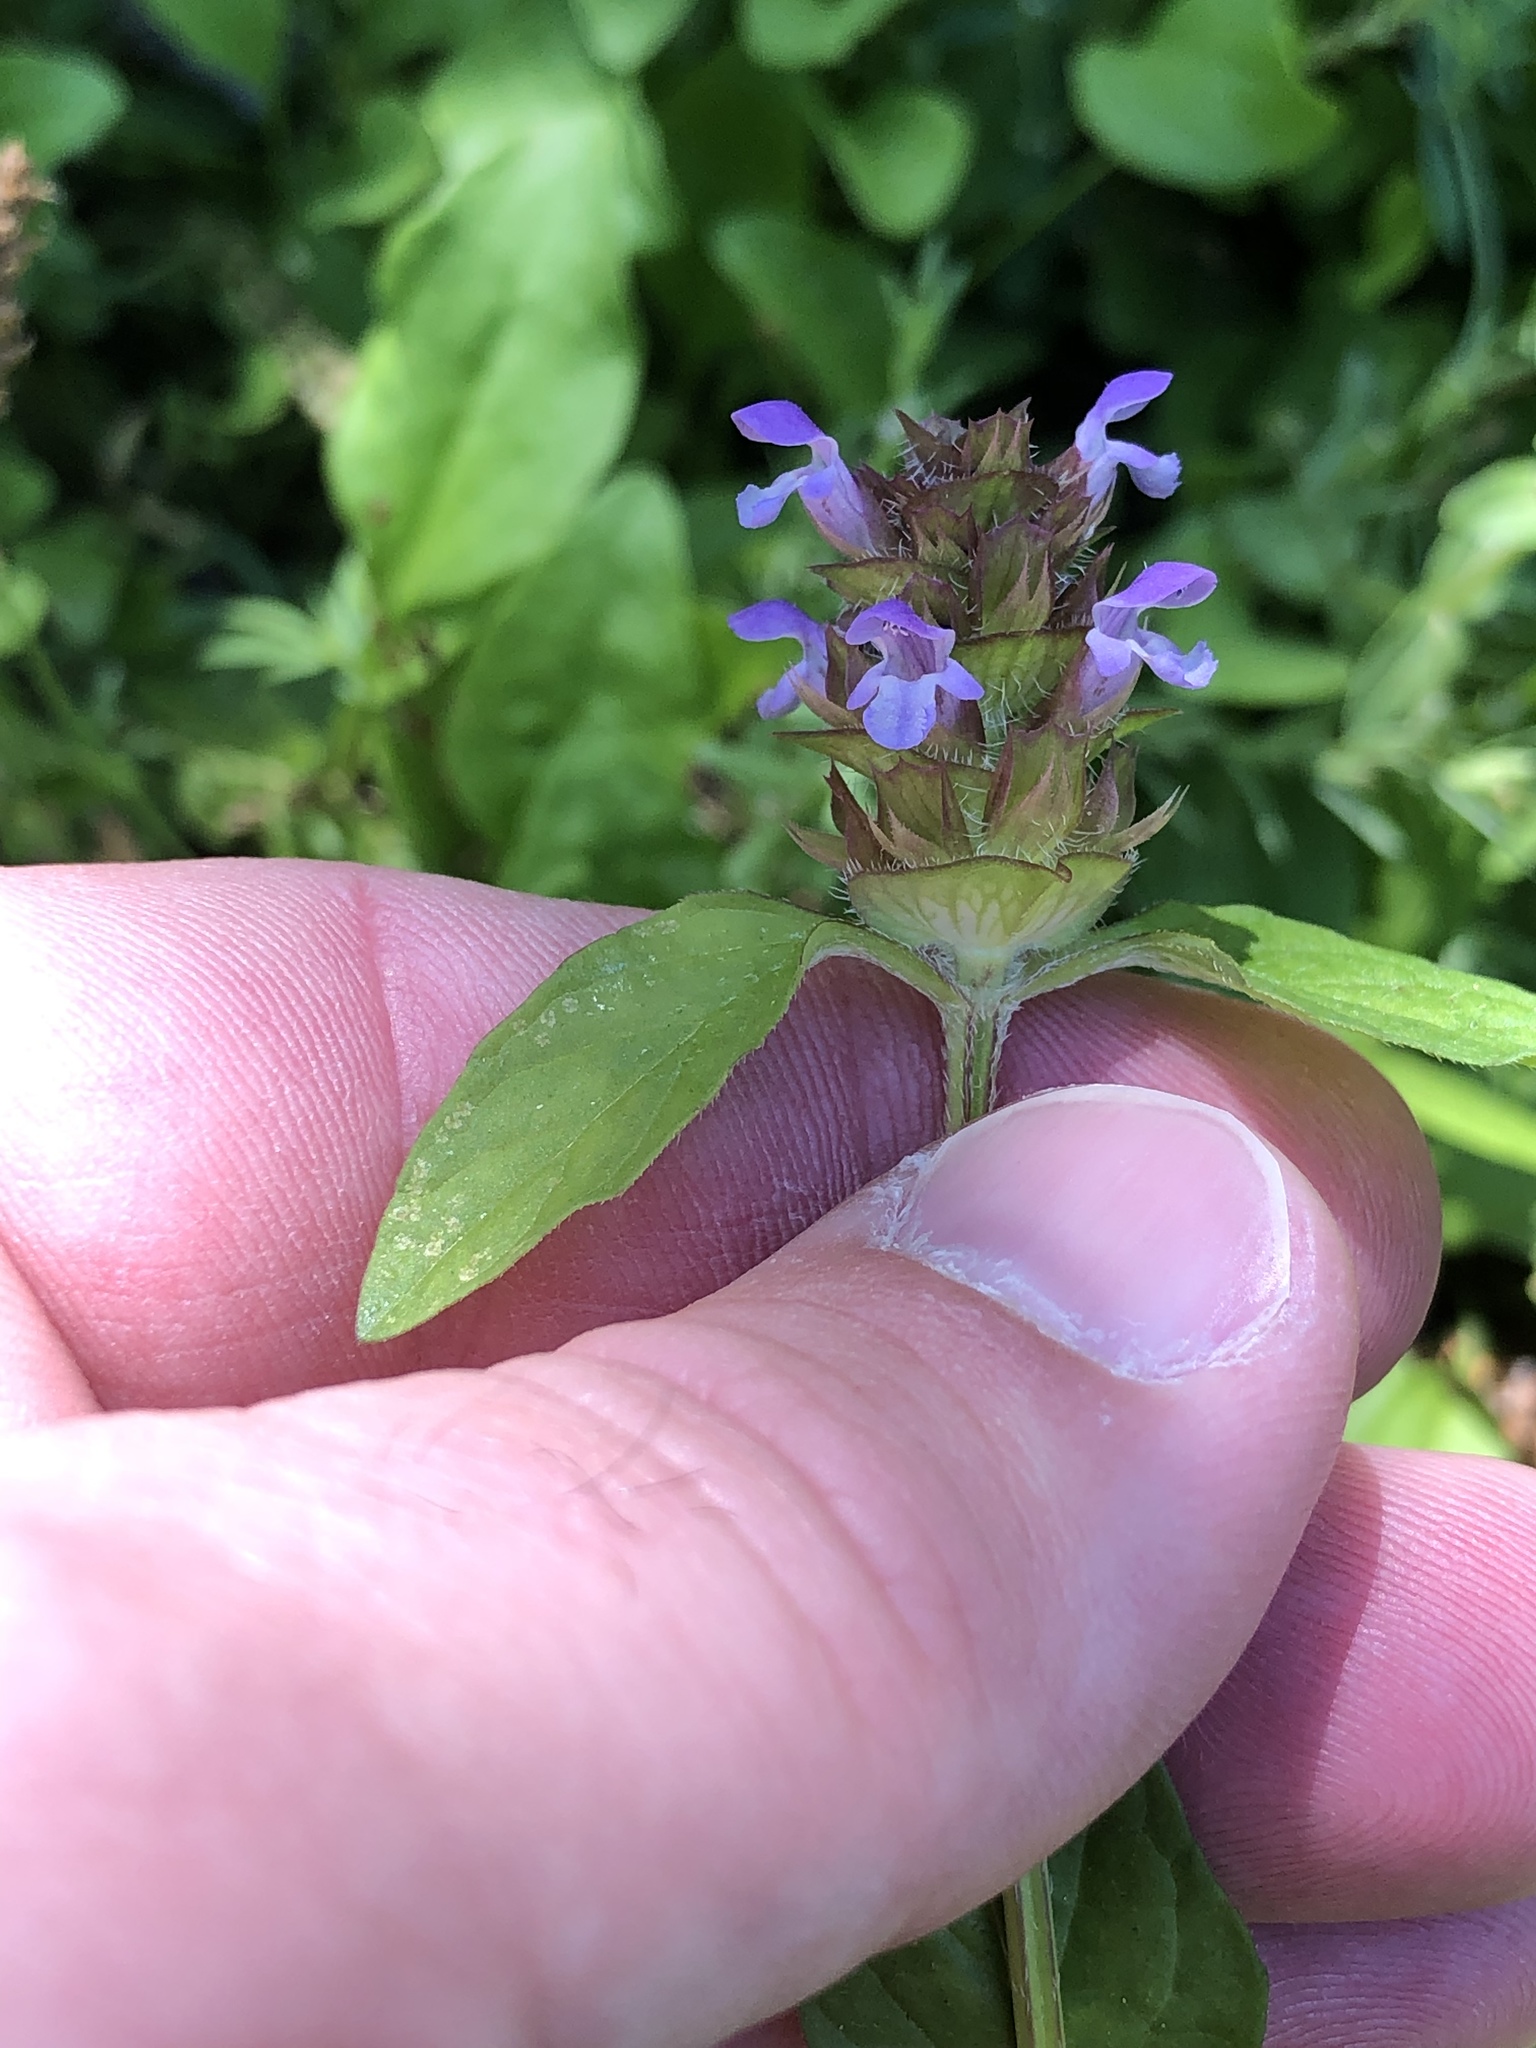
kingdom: Plantae
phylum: Tracheophyta
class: Magnoliopsida
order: Lamiales
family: Lamiaceae
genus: Prunella
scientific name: Prunella vulgaris
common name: Heal-all
